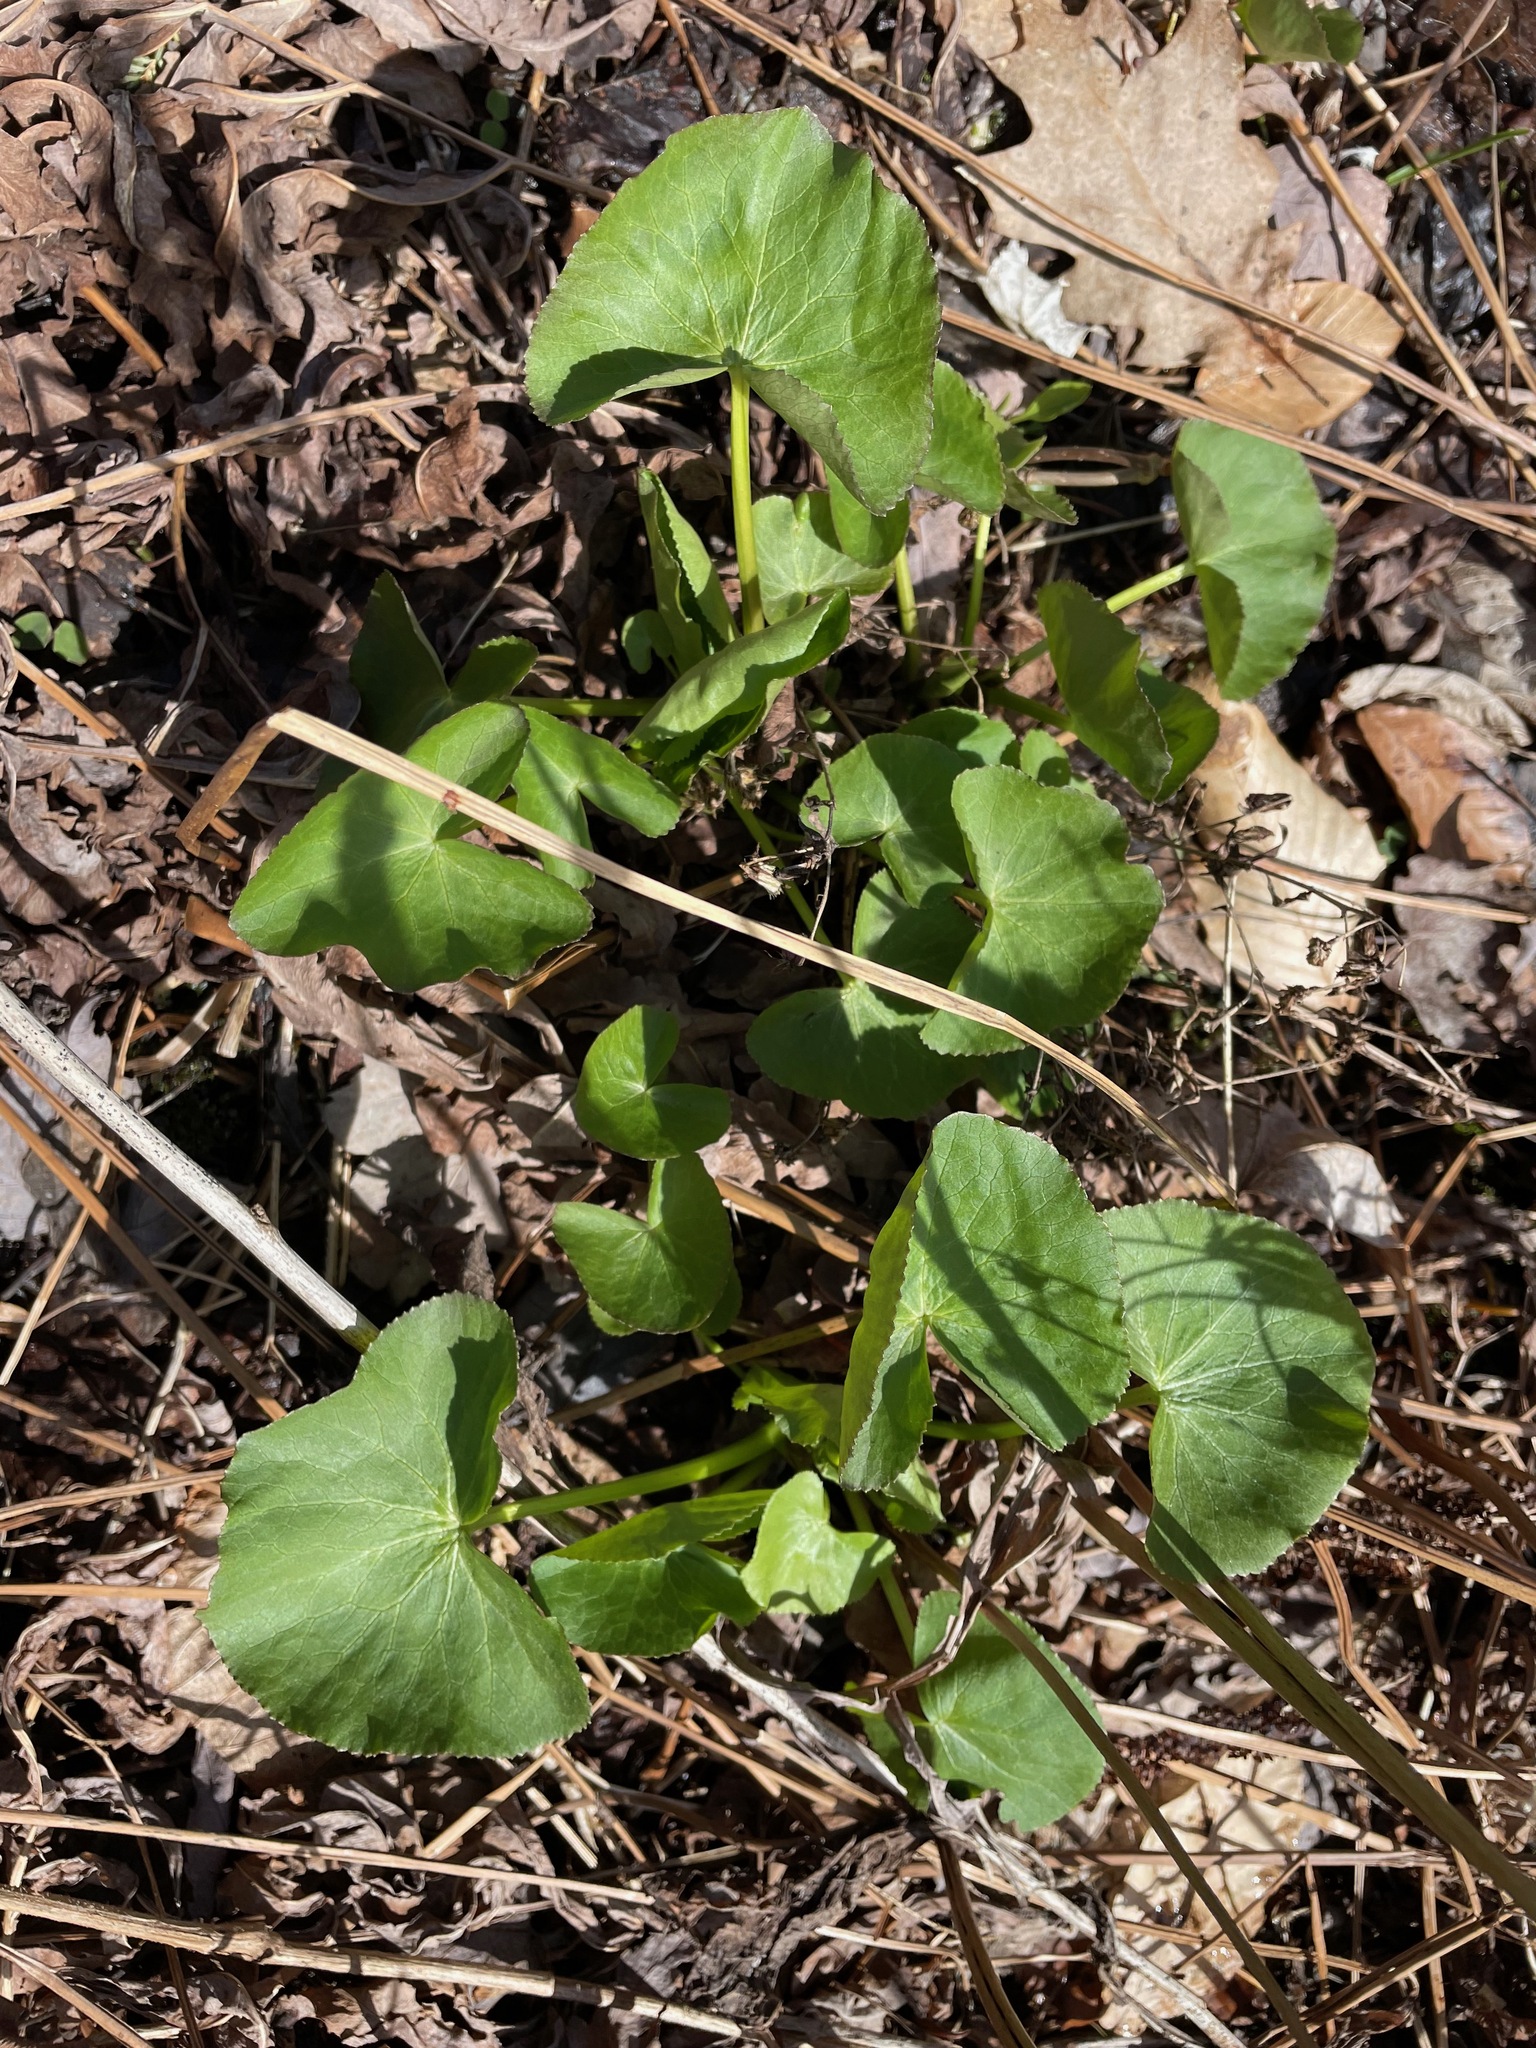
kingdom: Plantae
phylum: Tracheophyta
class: Magnoliopsida
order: Ranunculales
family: Ranunculaceae
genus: Caltha
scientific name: Caltha palustris
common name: Marsh marigold
